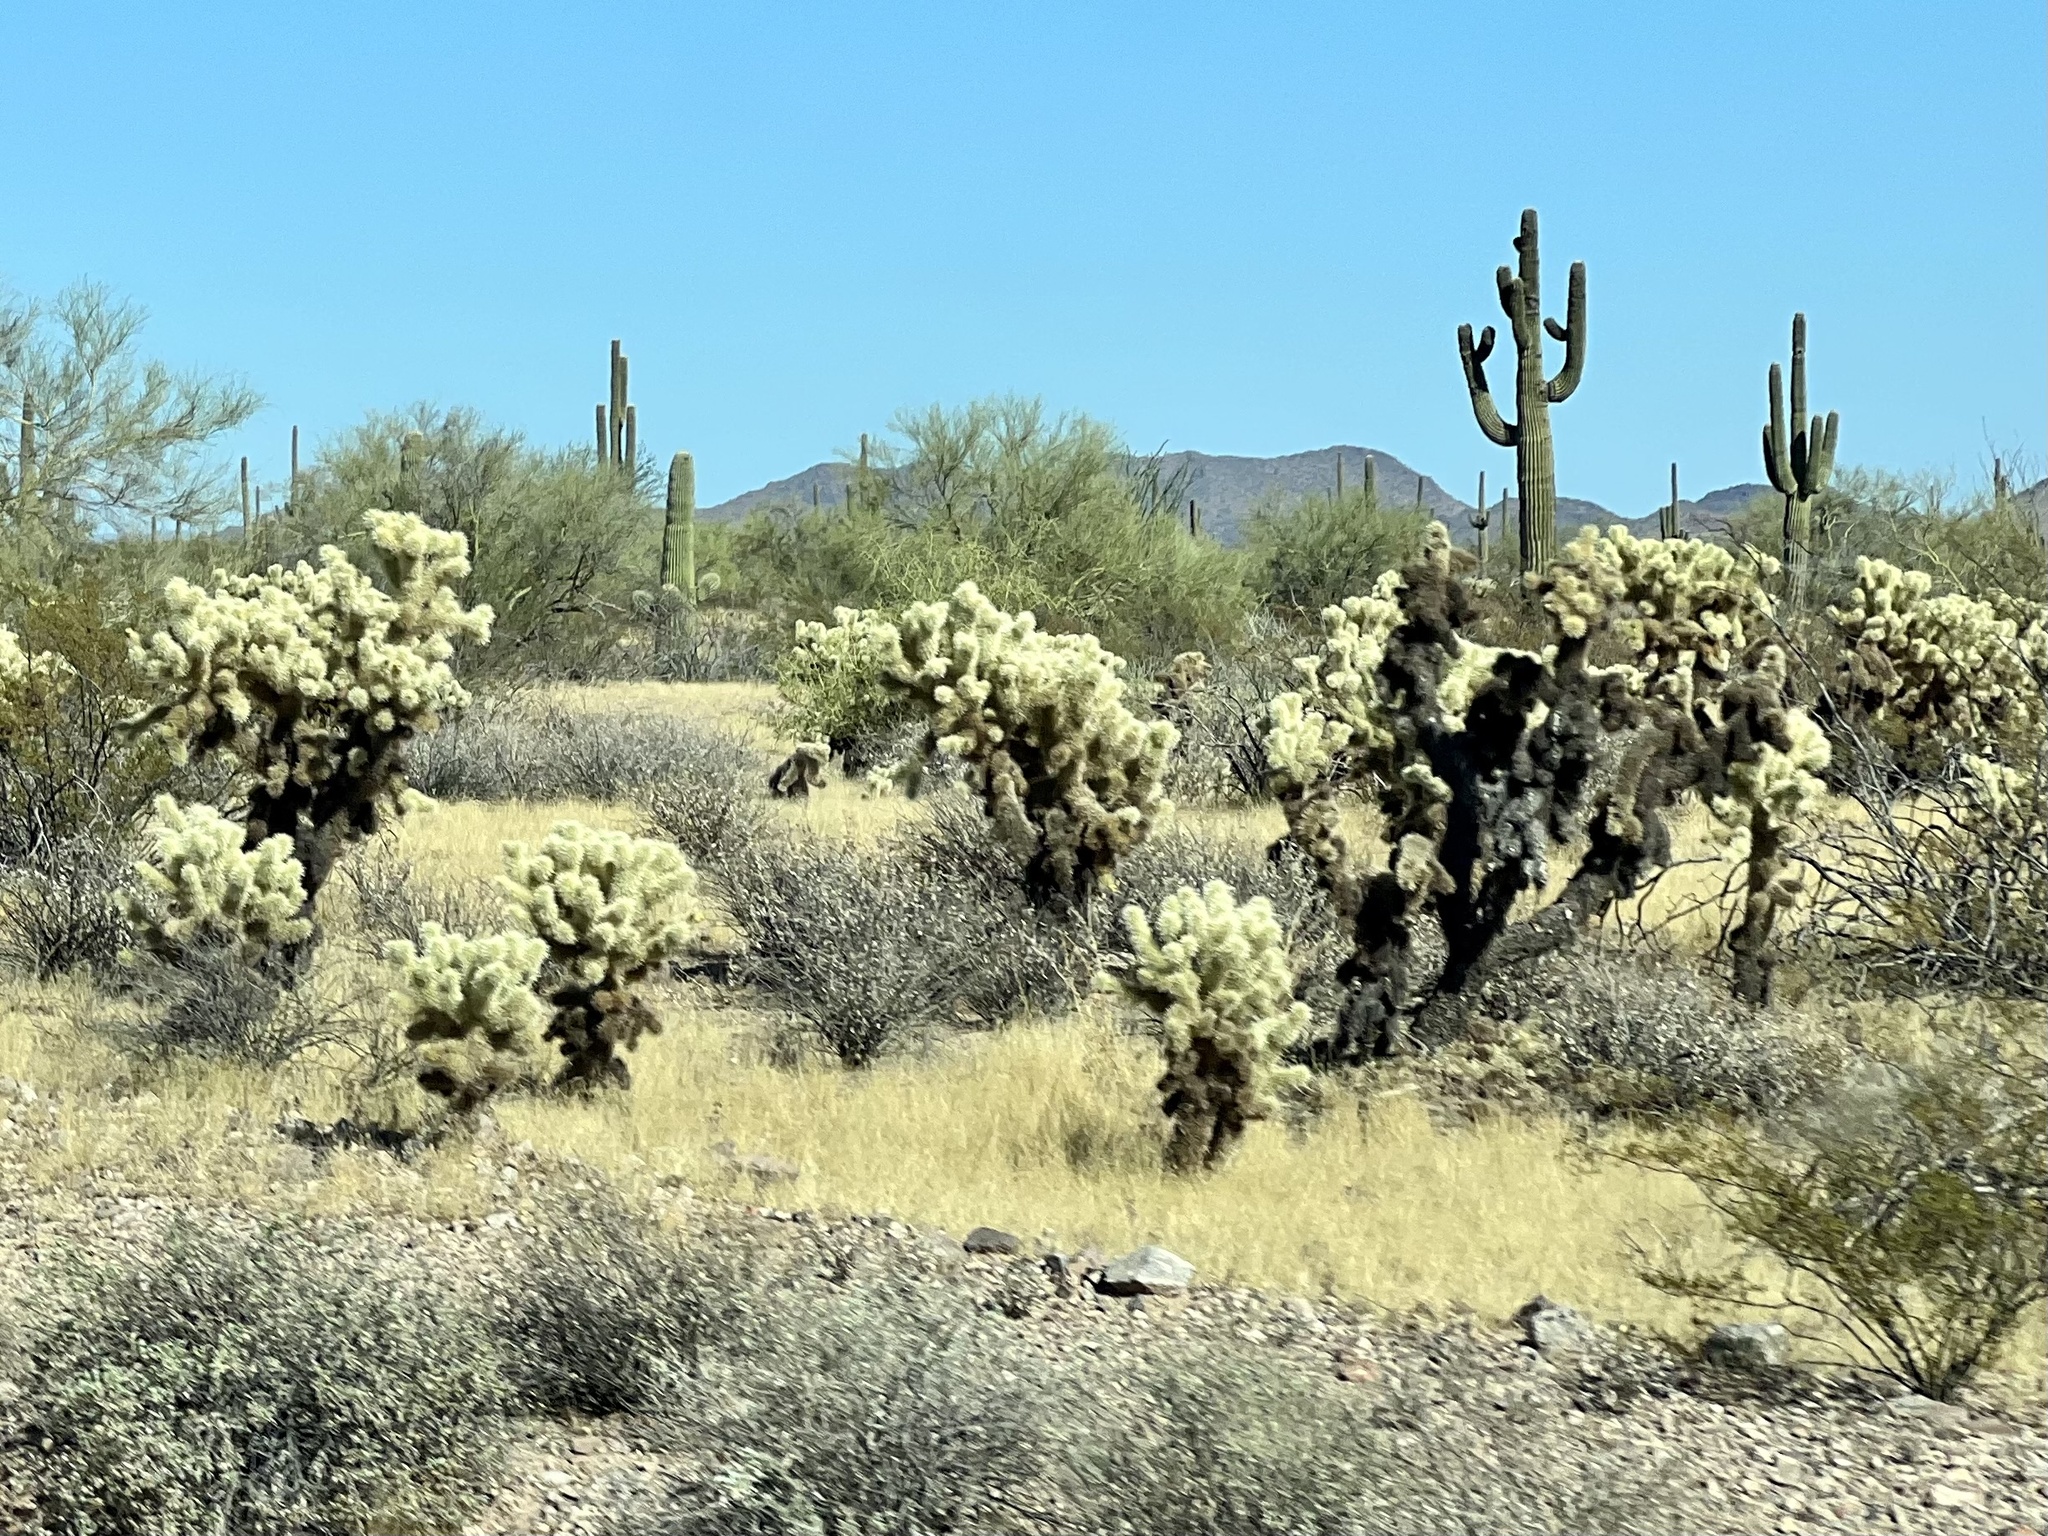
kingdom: Plantae
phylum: Tracheophyta
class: Magnoliopsida
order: Caryophyllales
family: Cactaceae
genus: Cylindropuntia
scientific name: Cylindropuntia fosbergii
